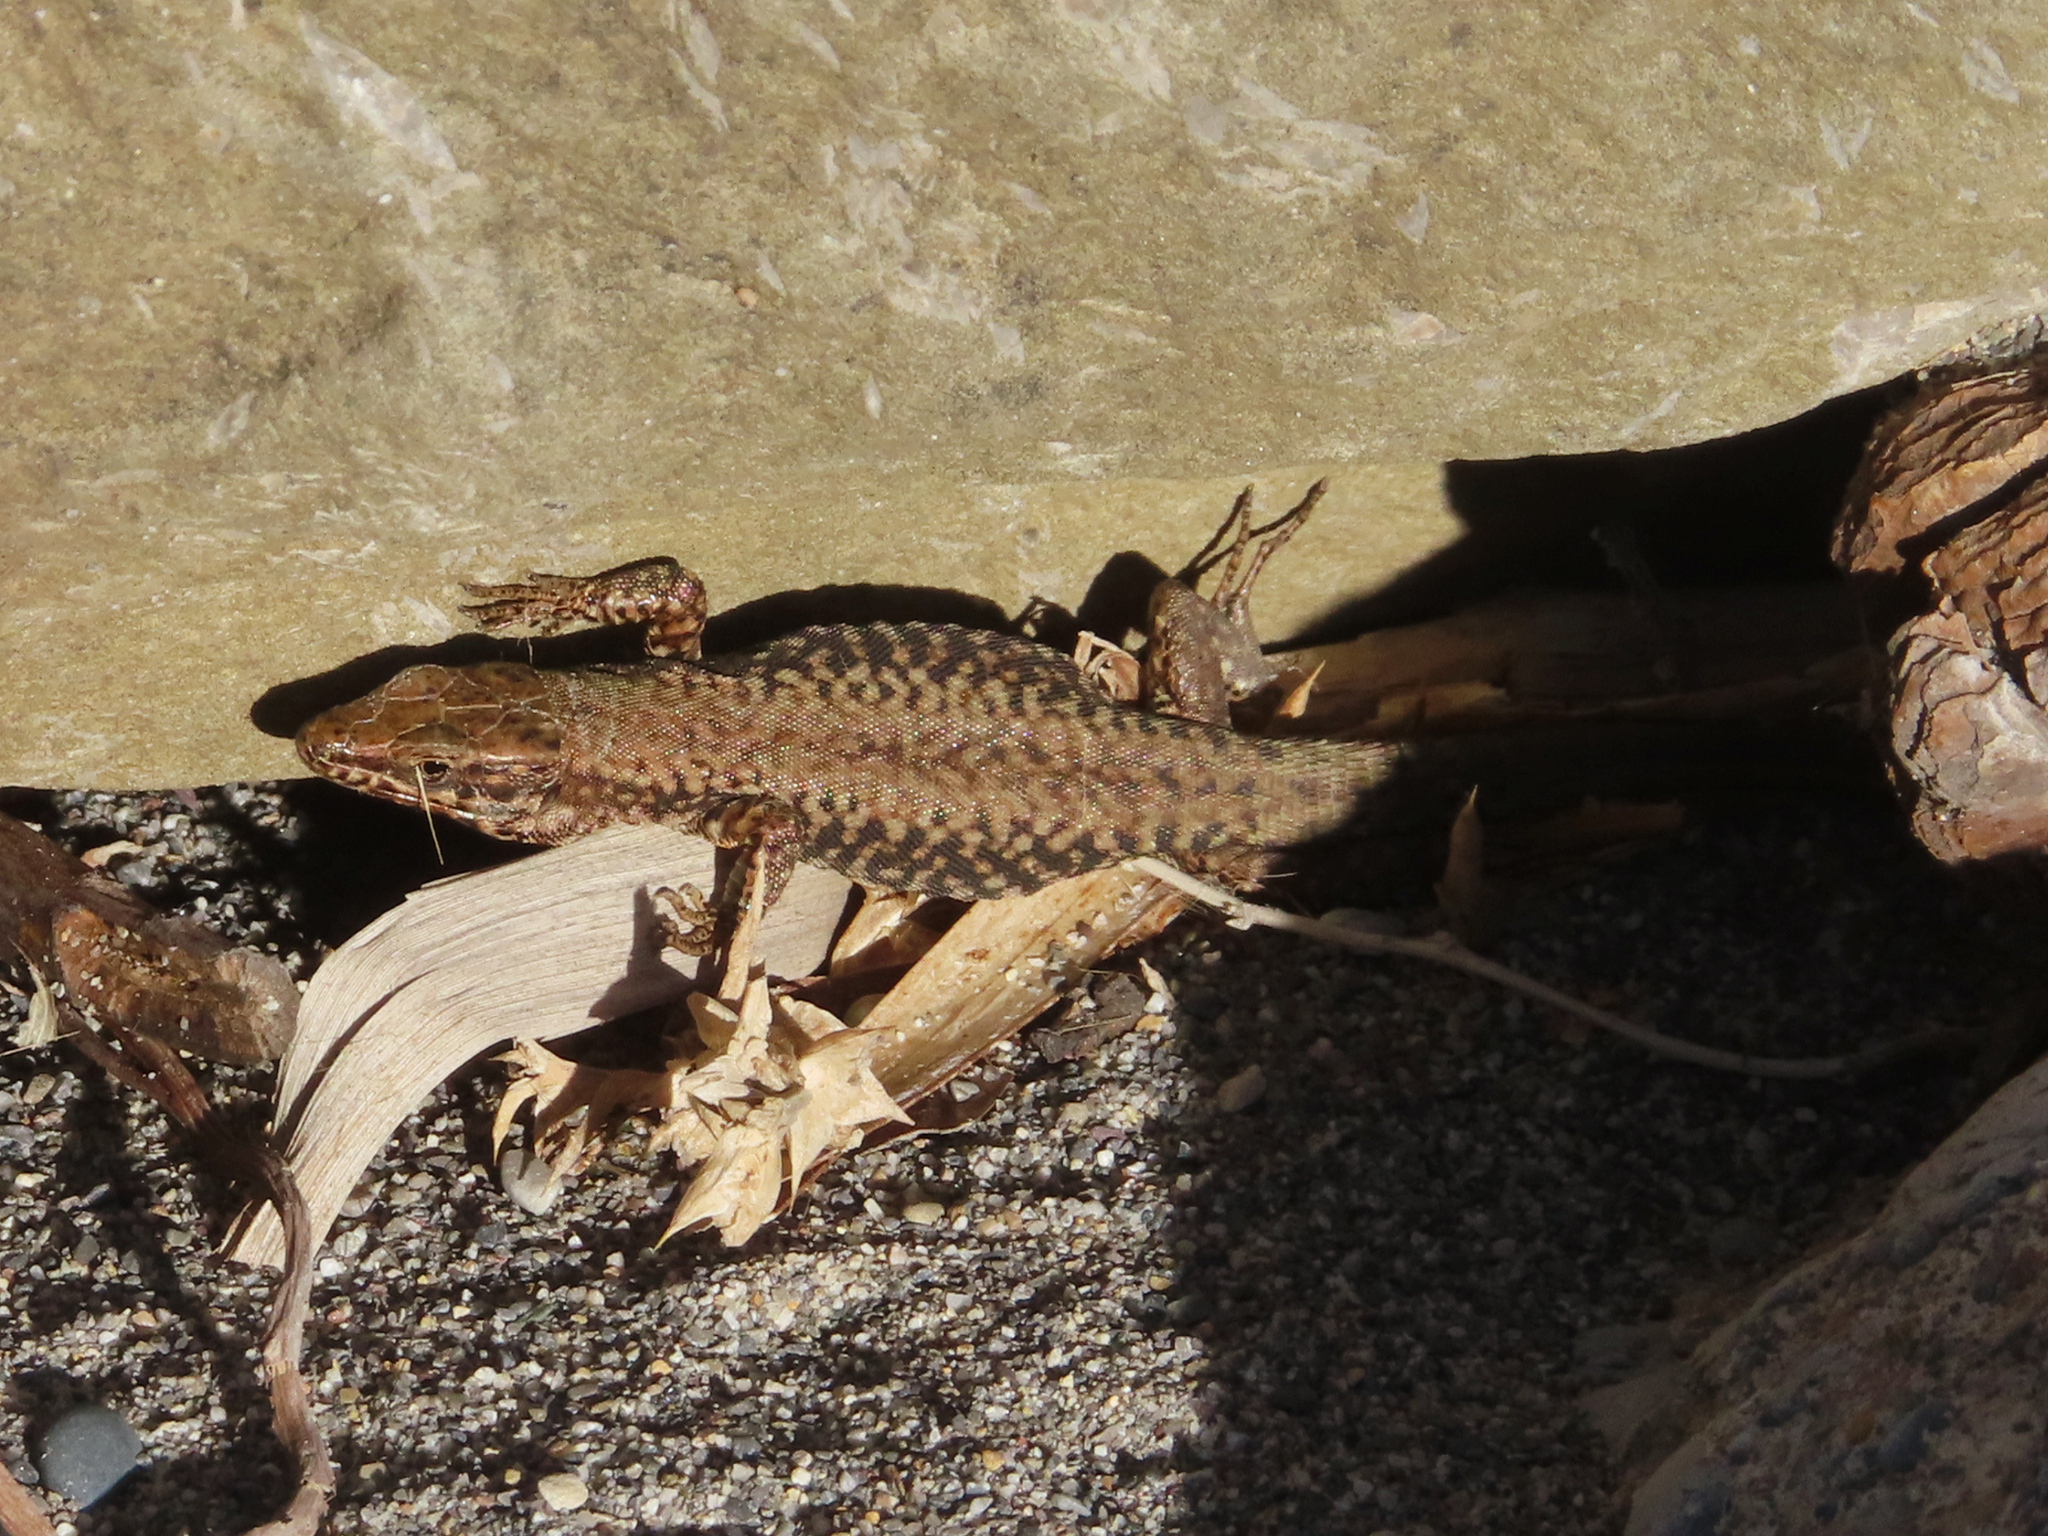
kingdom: Animalia
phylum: Chordata
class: Squamata
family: Lacertidae
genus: Podarcis
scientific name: Podarcis muralis
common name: Common wall lizard
